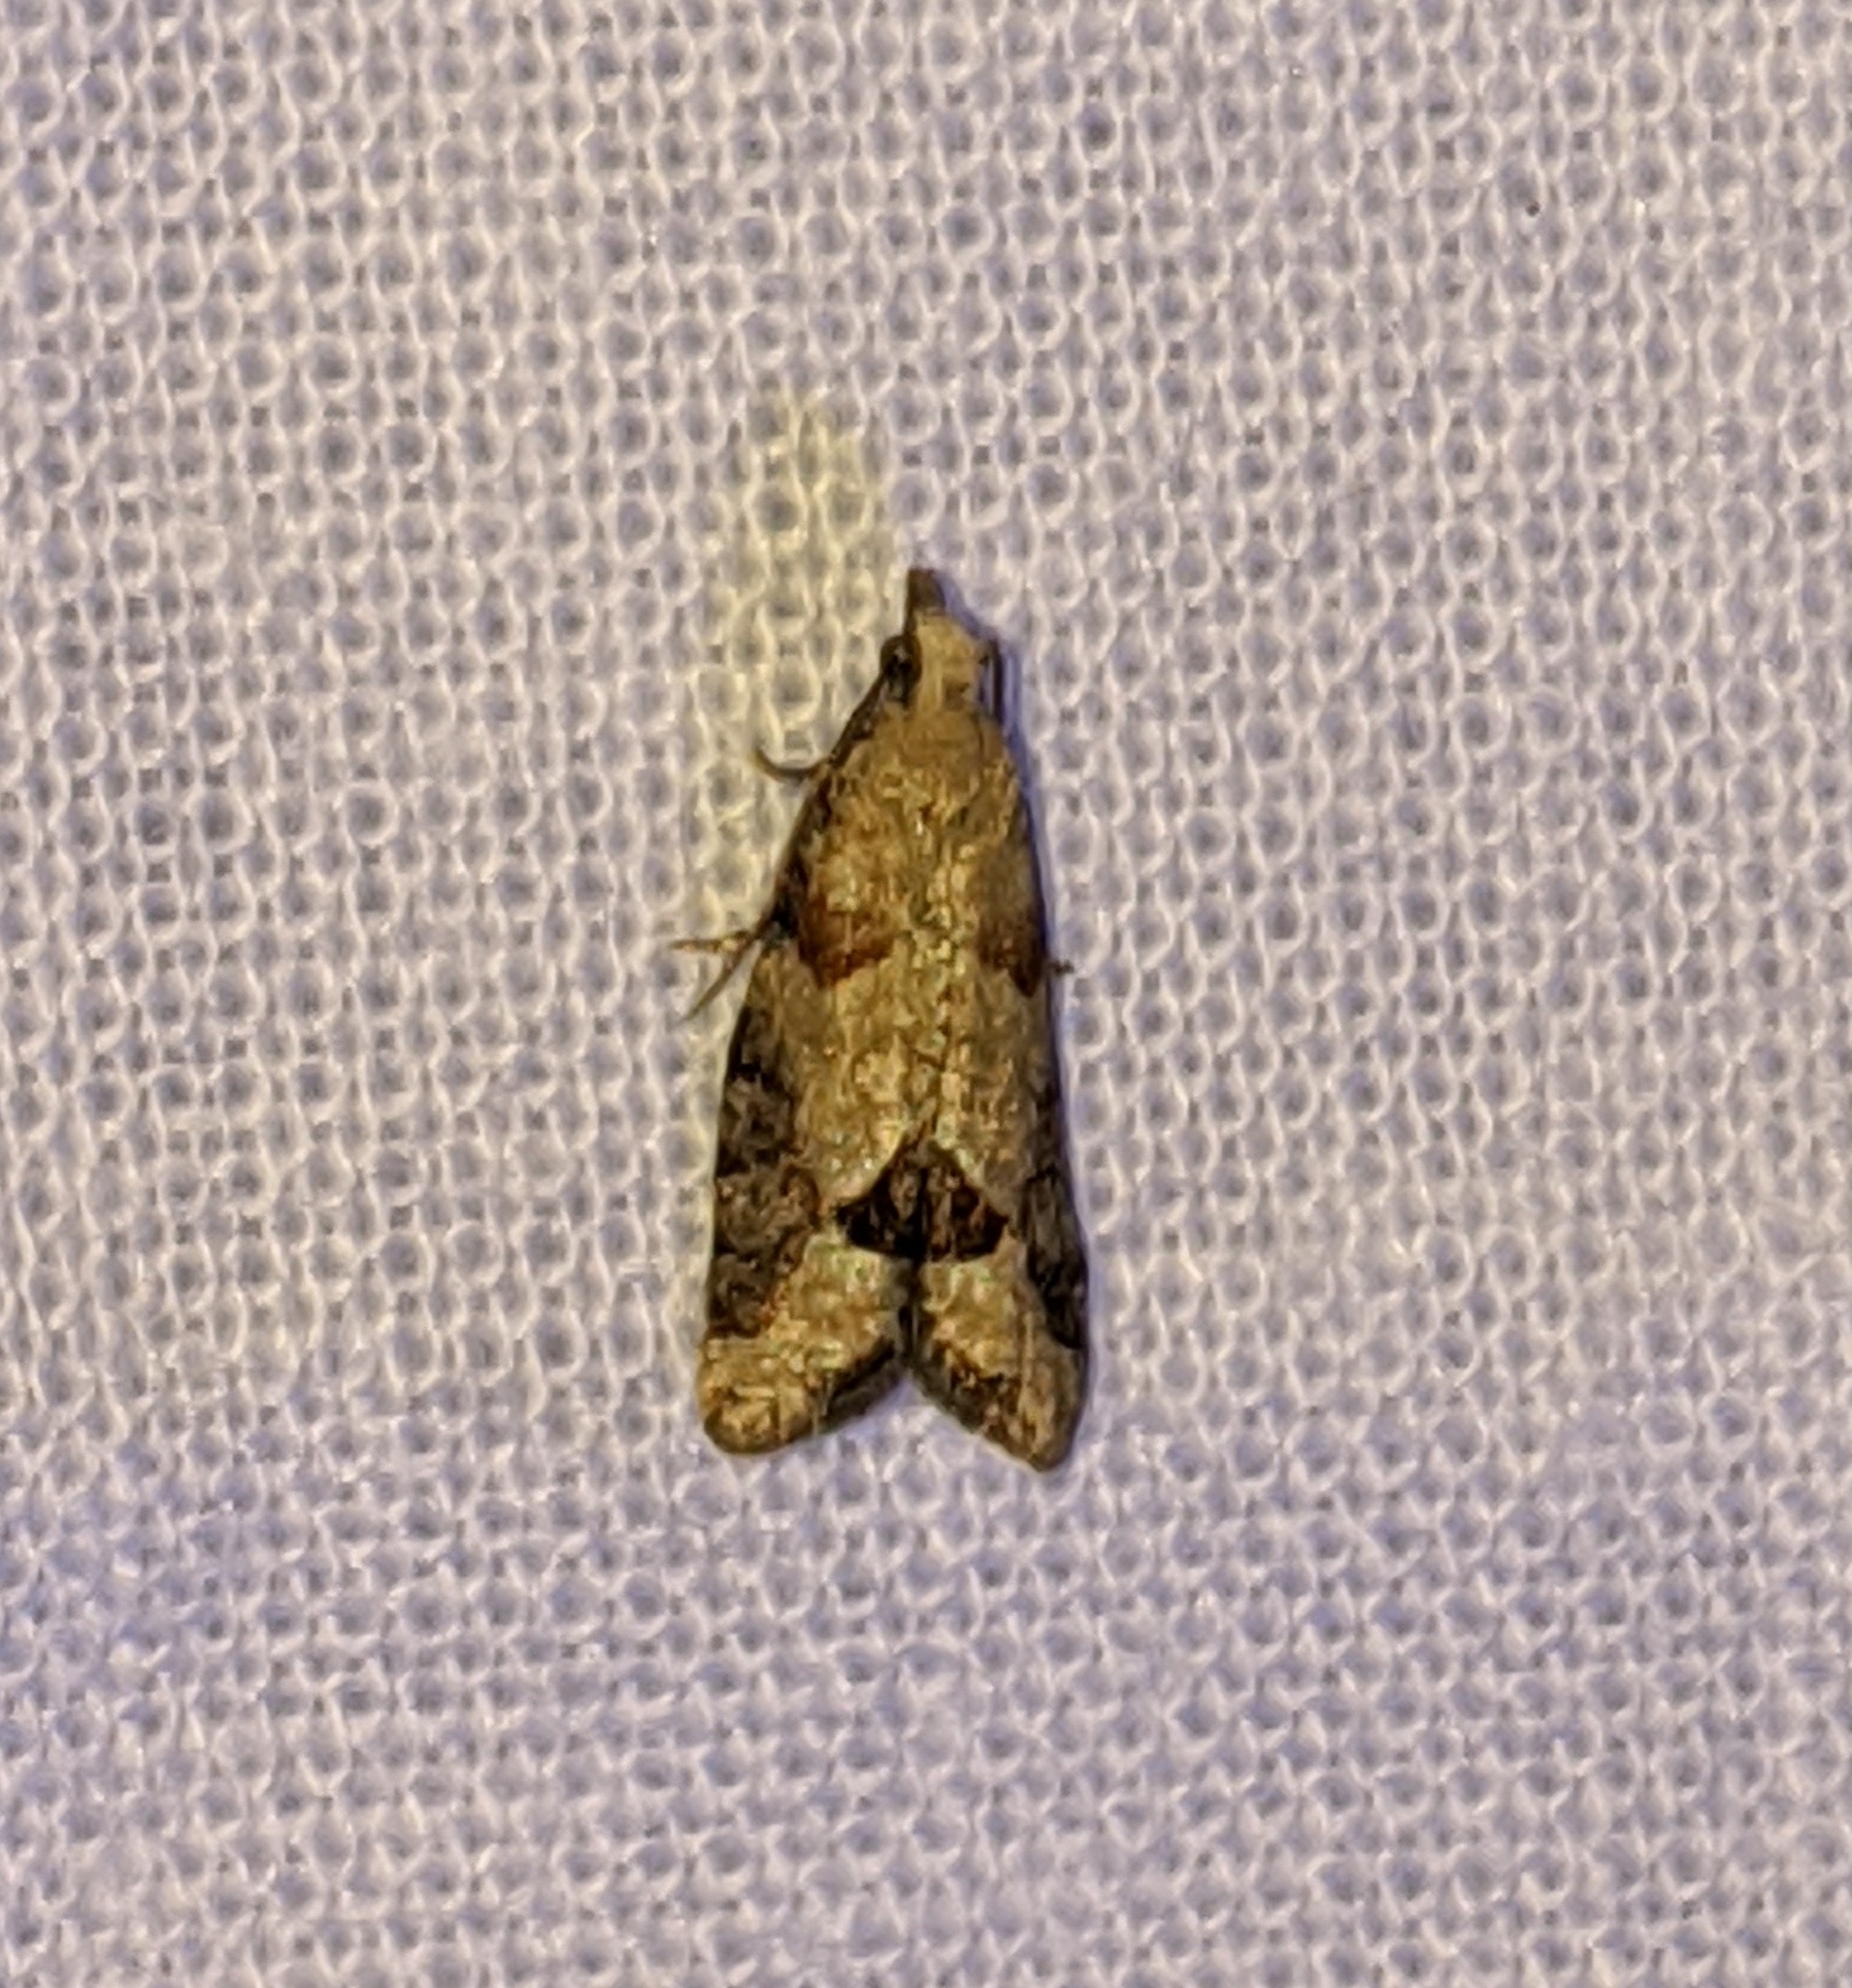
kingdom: Animalia
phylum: Arthropoda
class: Insecta
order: Lepidoptera
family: Tortricidae
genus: Epinotia
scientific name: Epinotia radicana
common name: Red-striped needleworm moth
